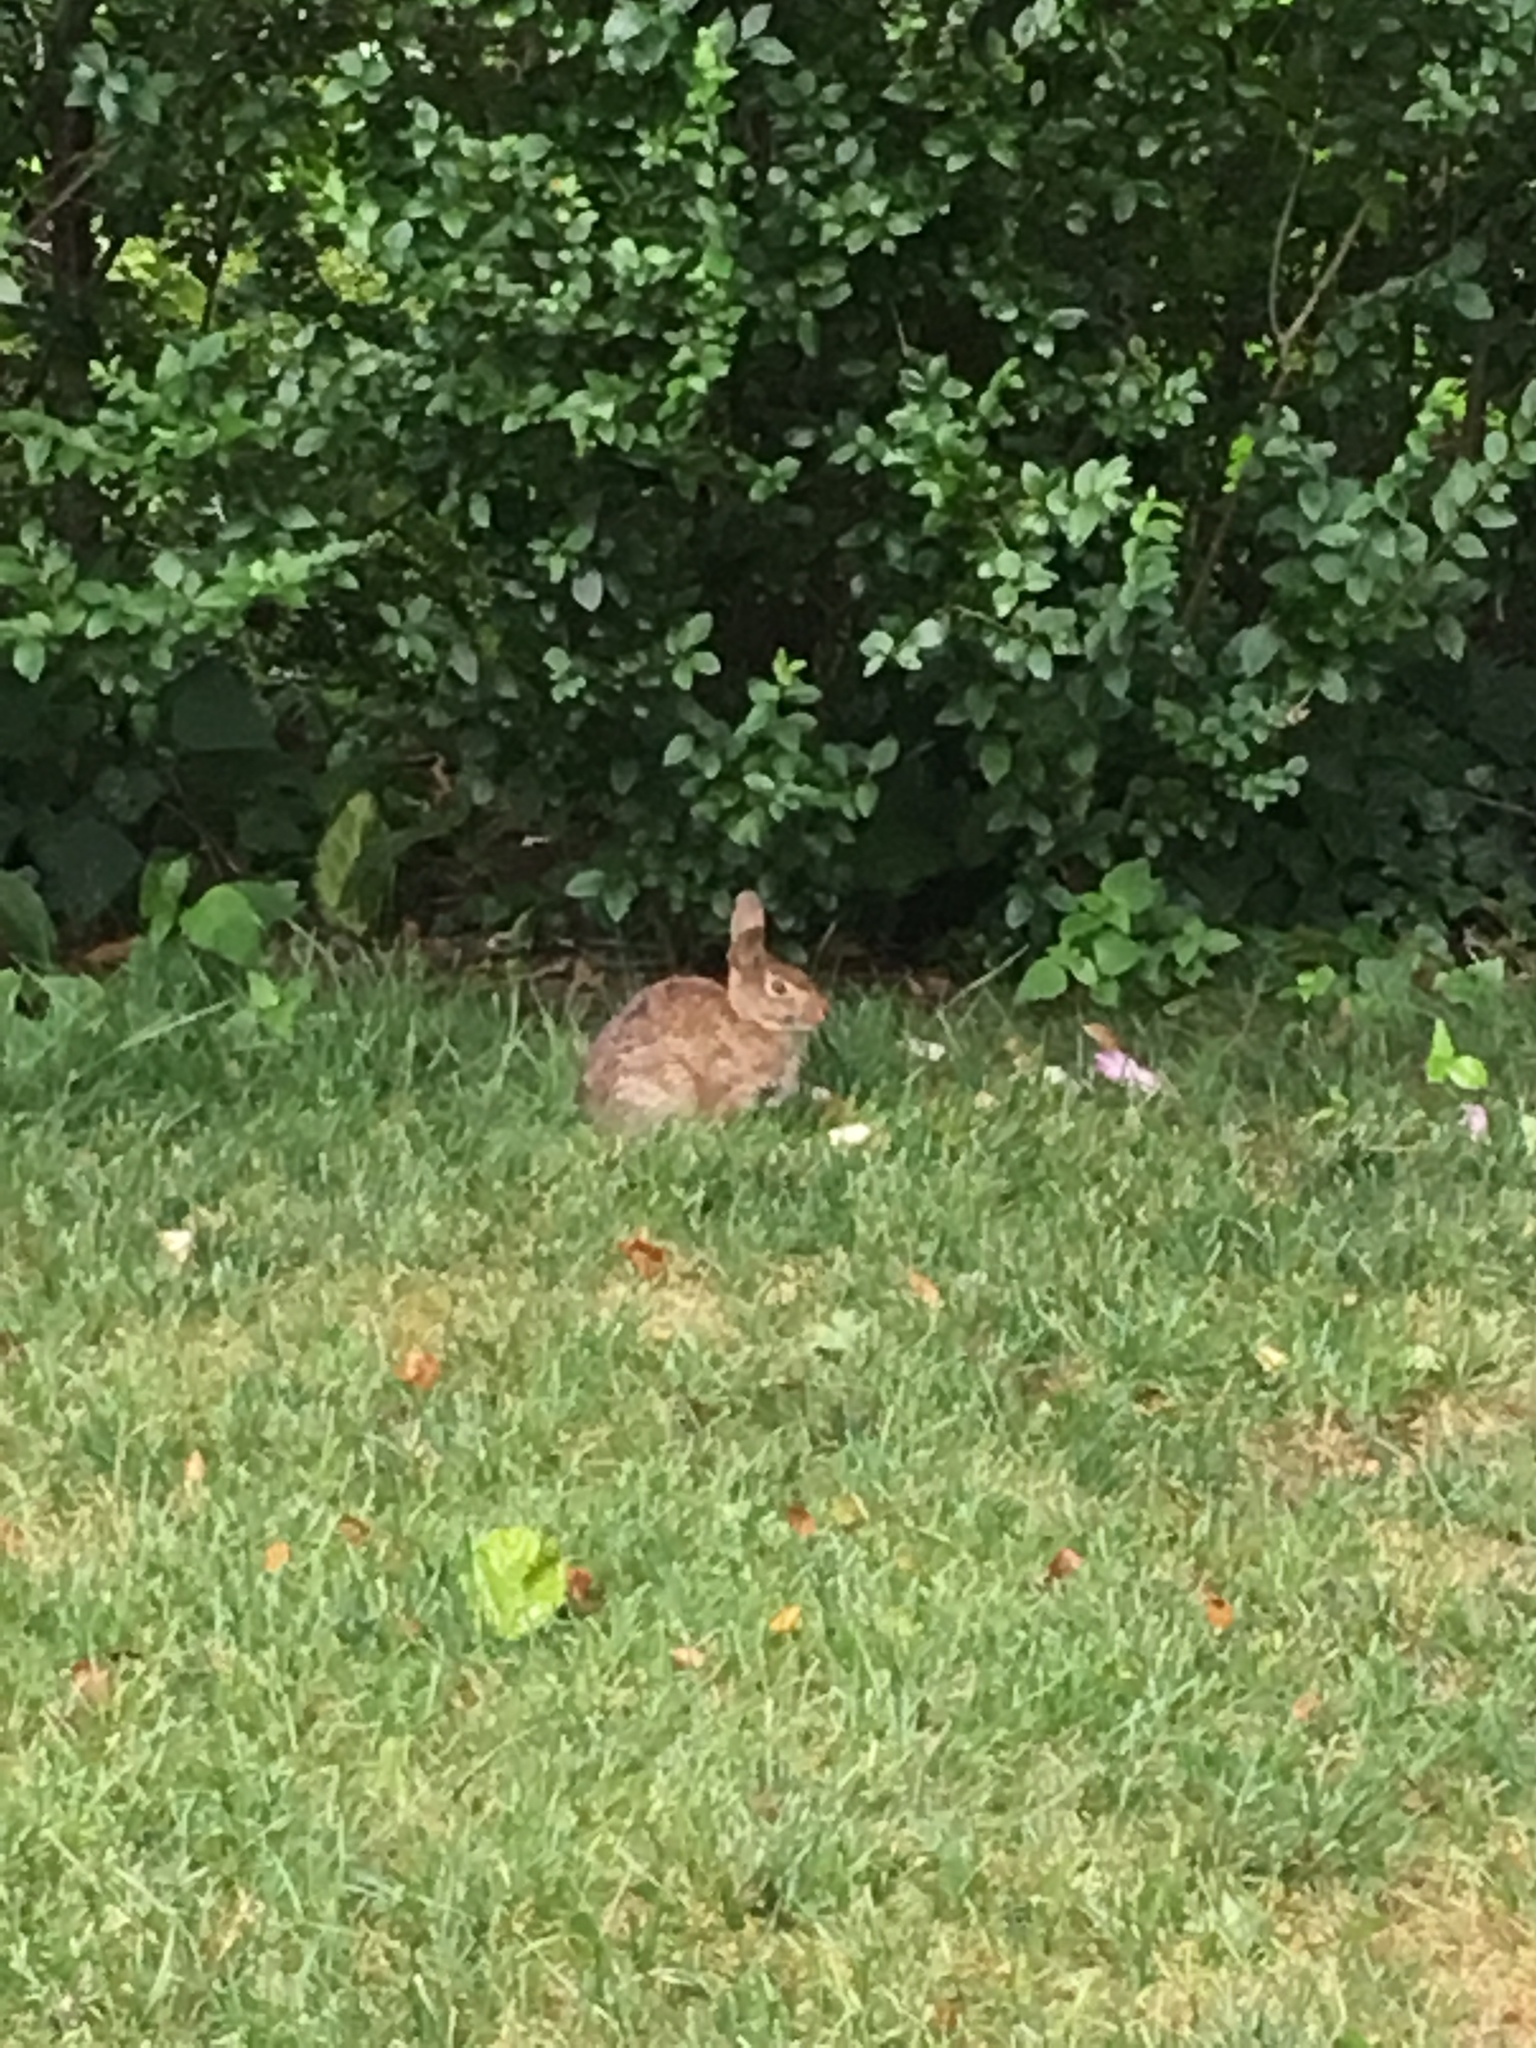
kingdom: Animalia
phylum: Chordata
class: Mammalia
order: Lagomorpha
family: Leporidae
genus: Sylvilagus
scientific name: Sylvilagus floridanus
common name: Eastern cottontail
